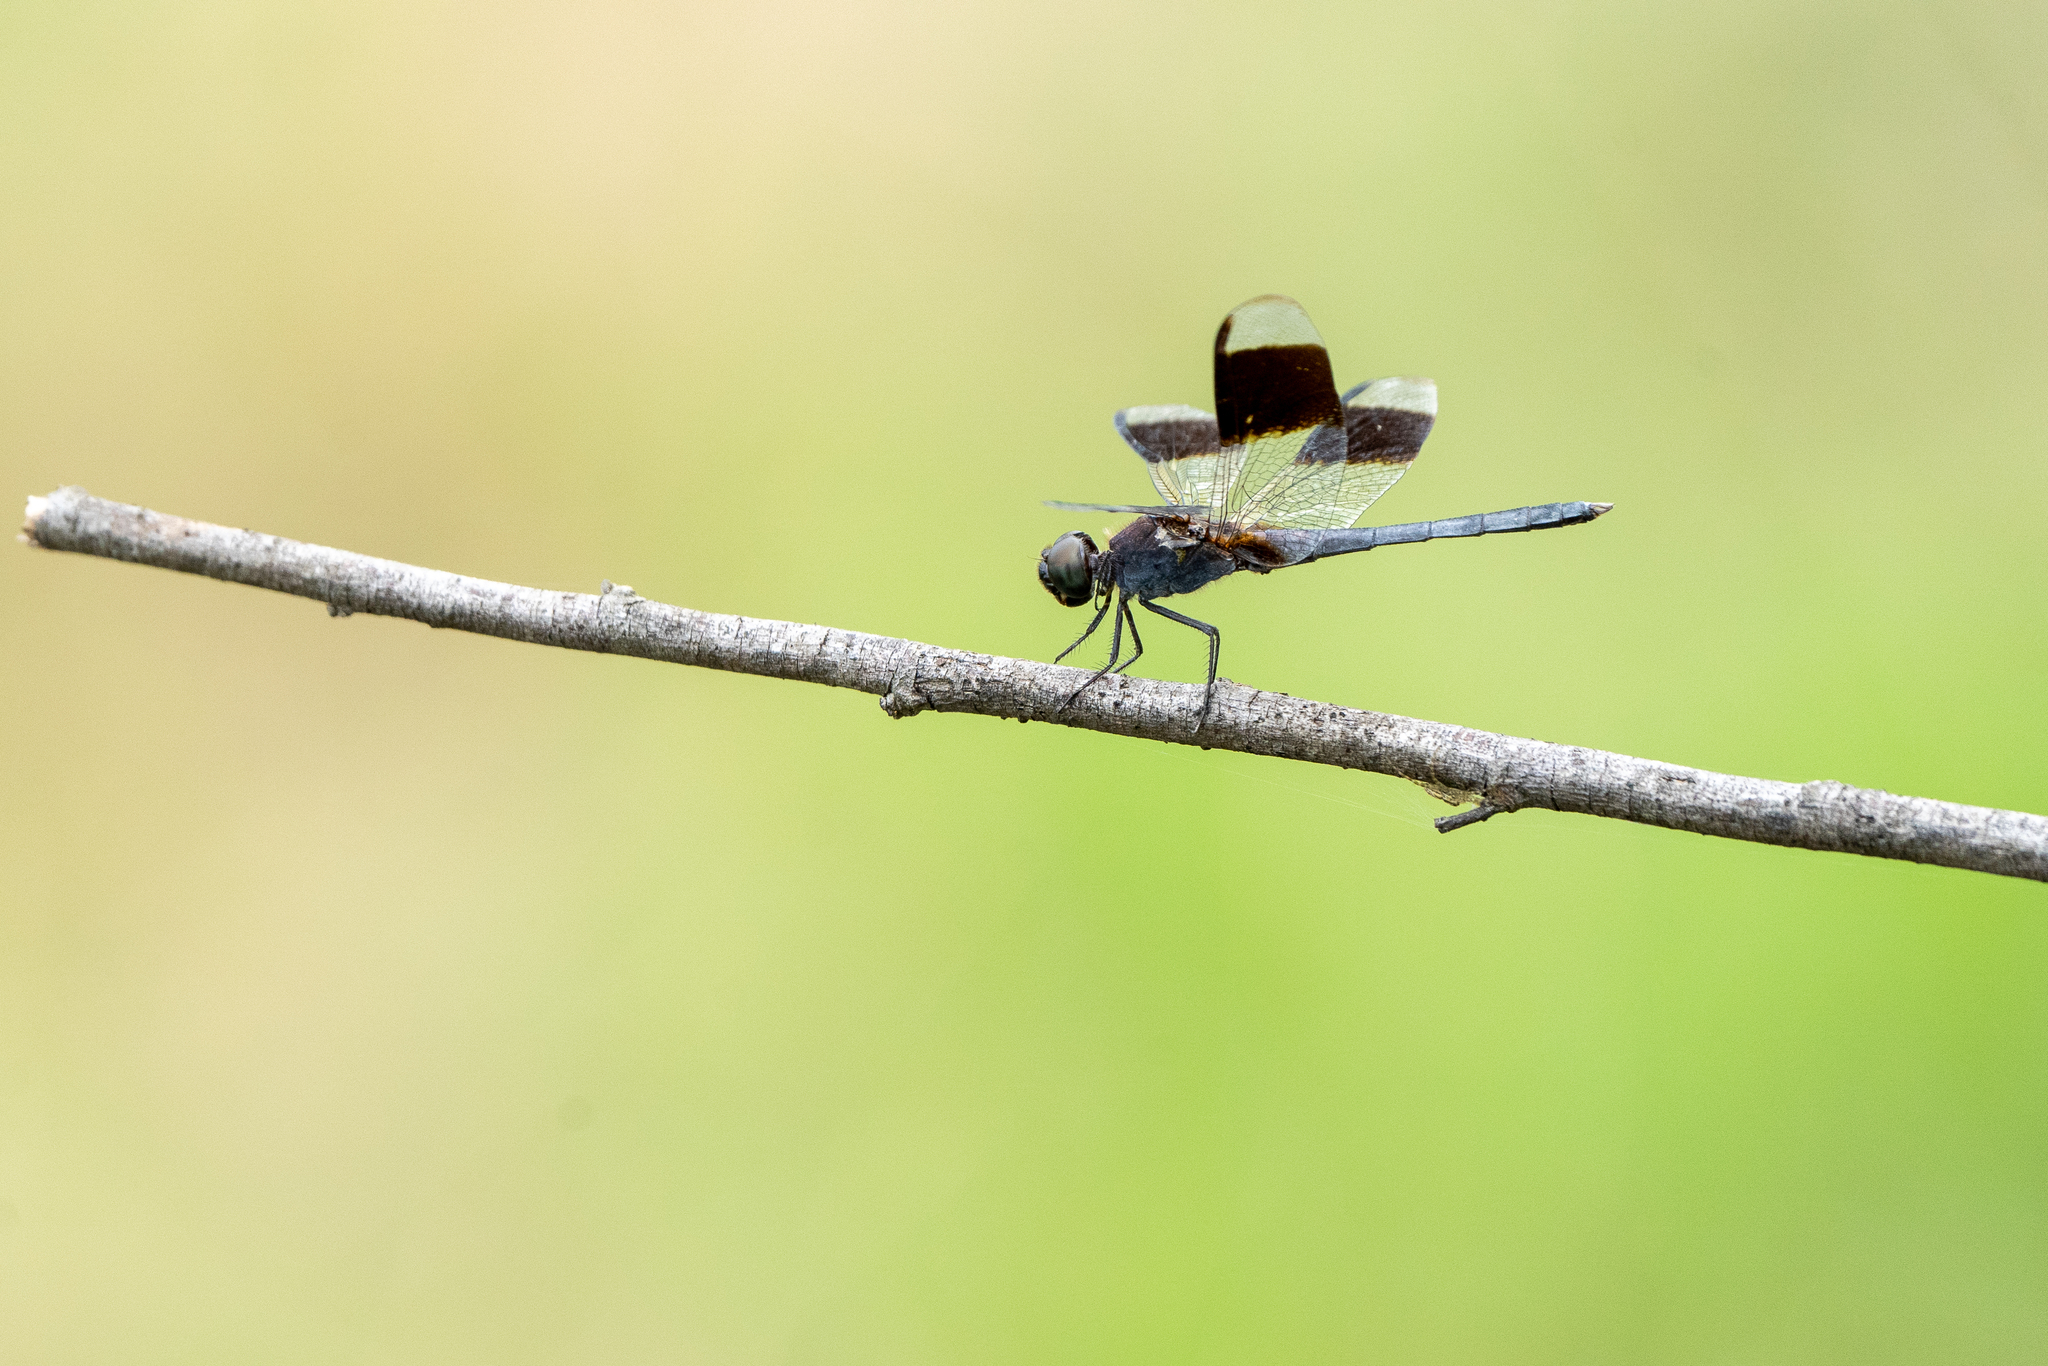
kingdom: Animalia
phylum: Arthropoda
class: Insecta
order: Odonata
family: Libellulidae
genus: Erythrodiplax
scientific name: Erythrodiplax umbrata
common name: Band-winged dragonlet
